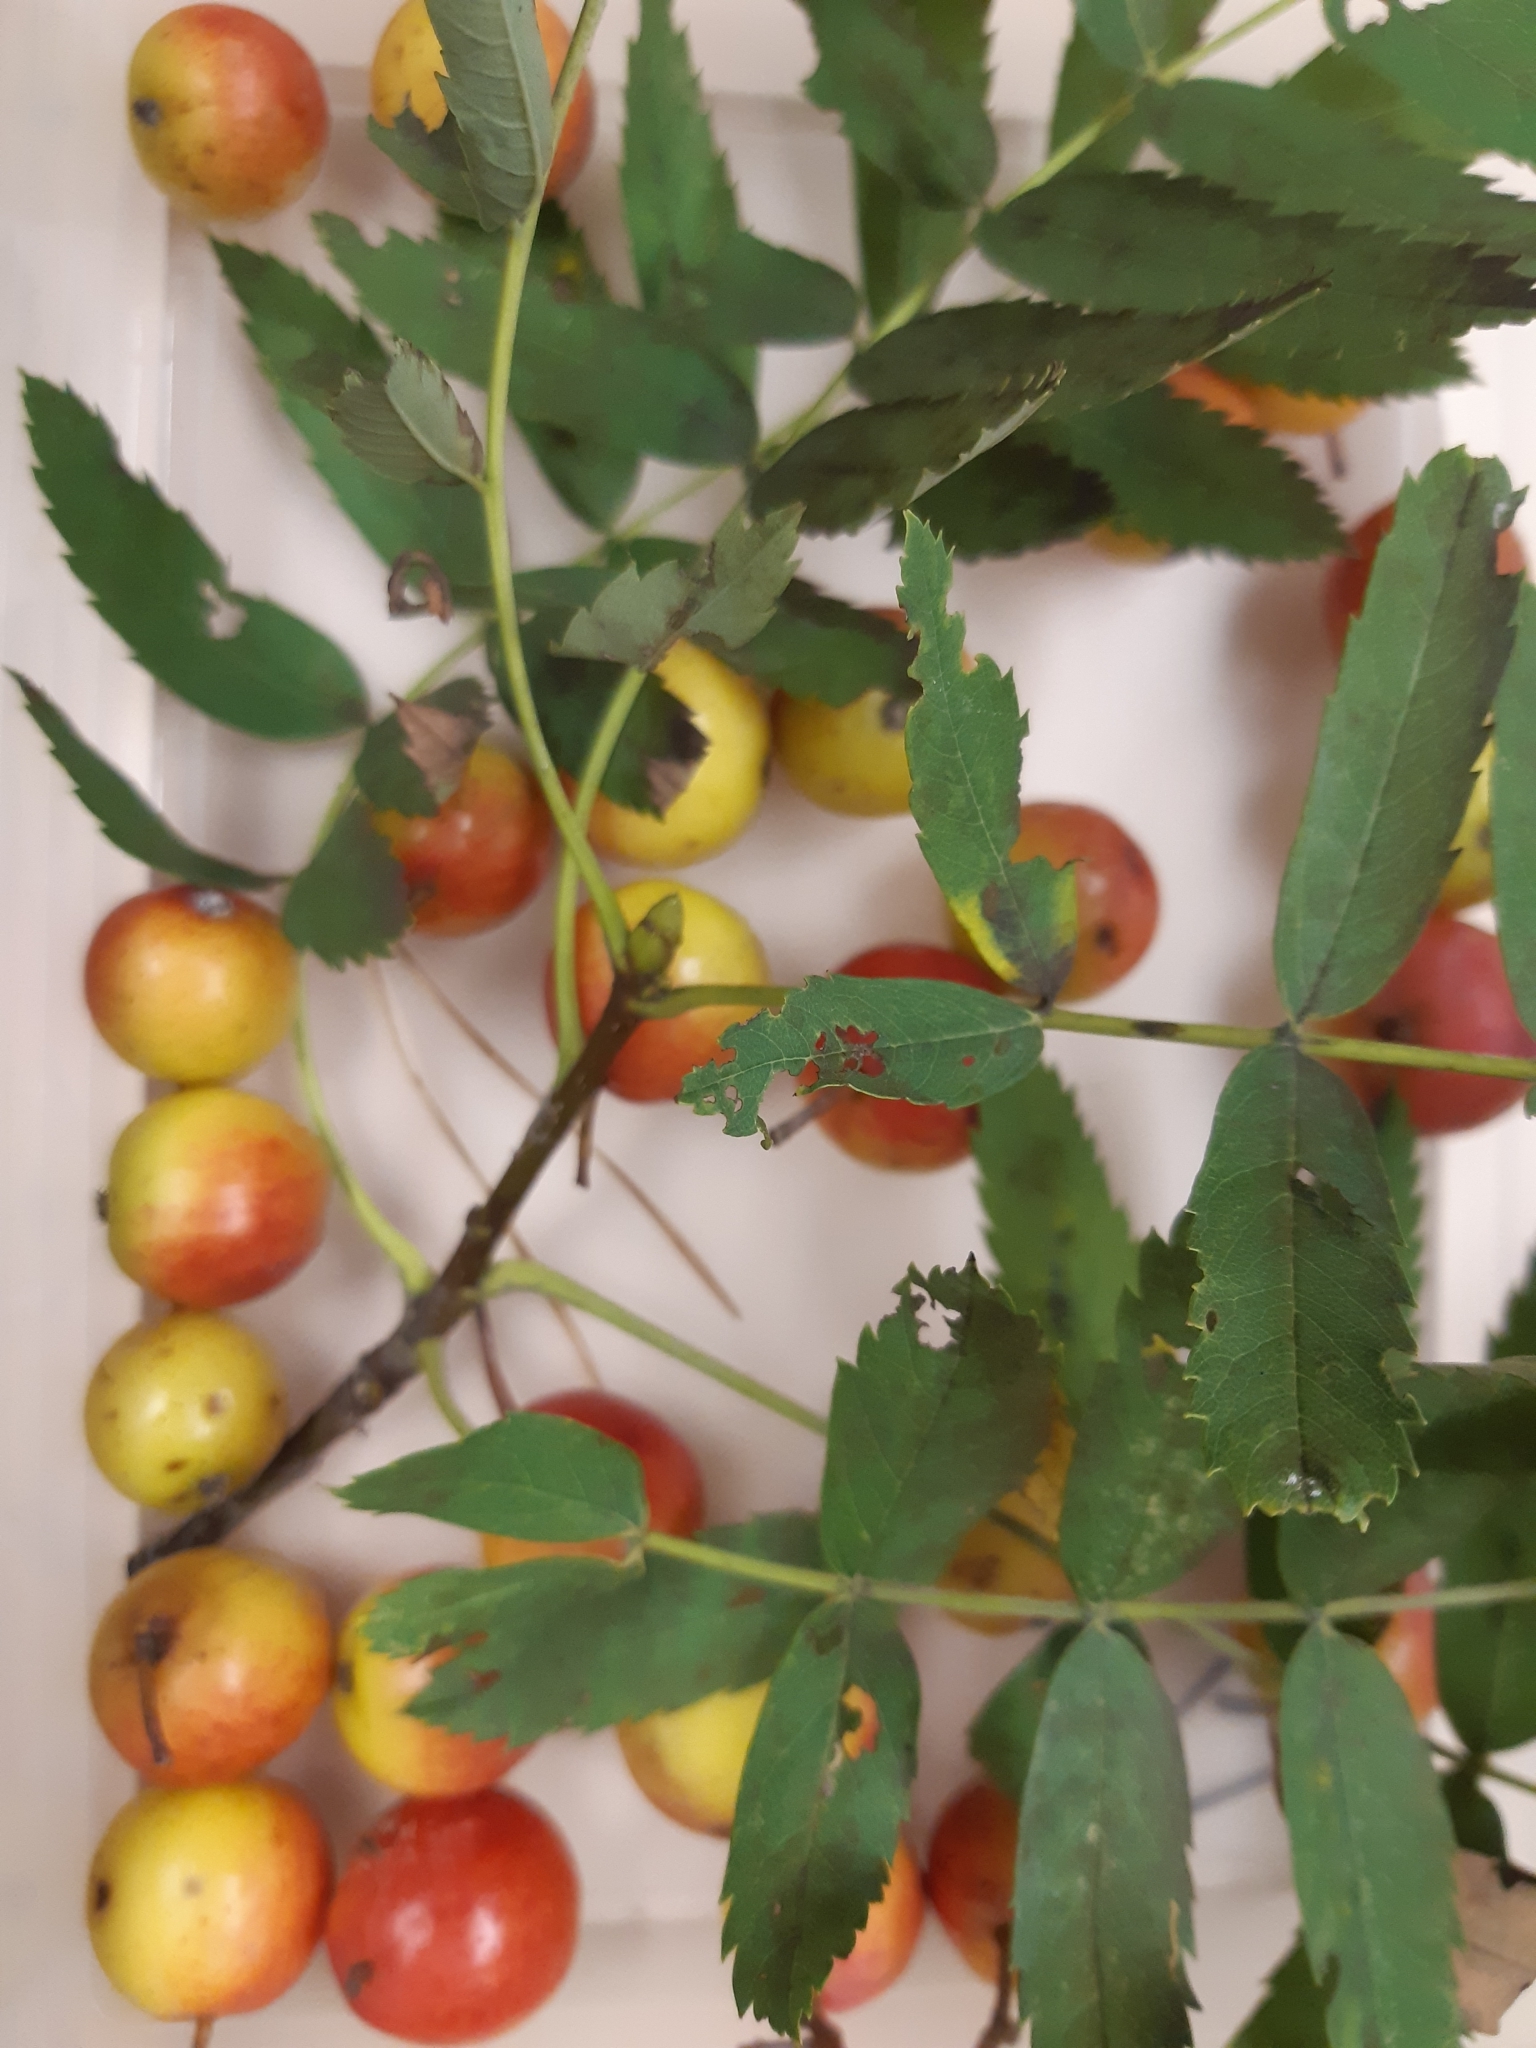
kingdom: Plantae
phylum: Tracheophyta
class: Magnoliopsida
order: Rosales
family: Rosaceae
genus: Cormus
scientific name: Cormus domestica
